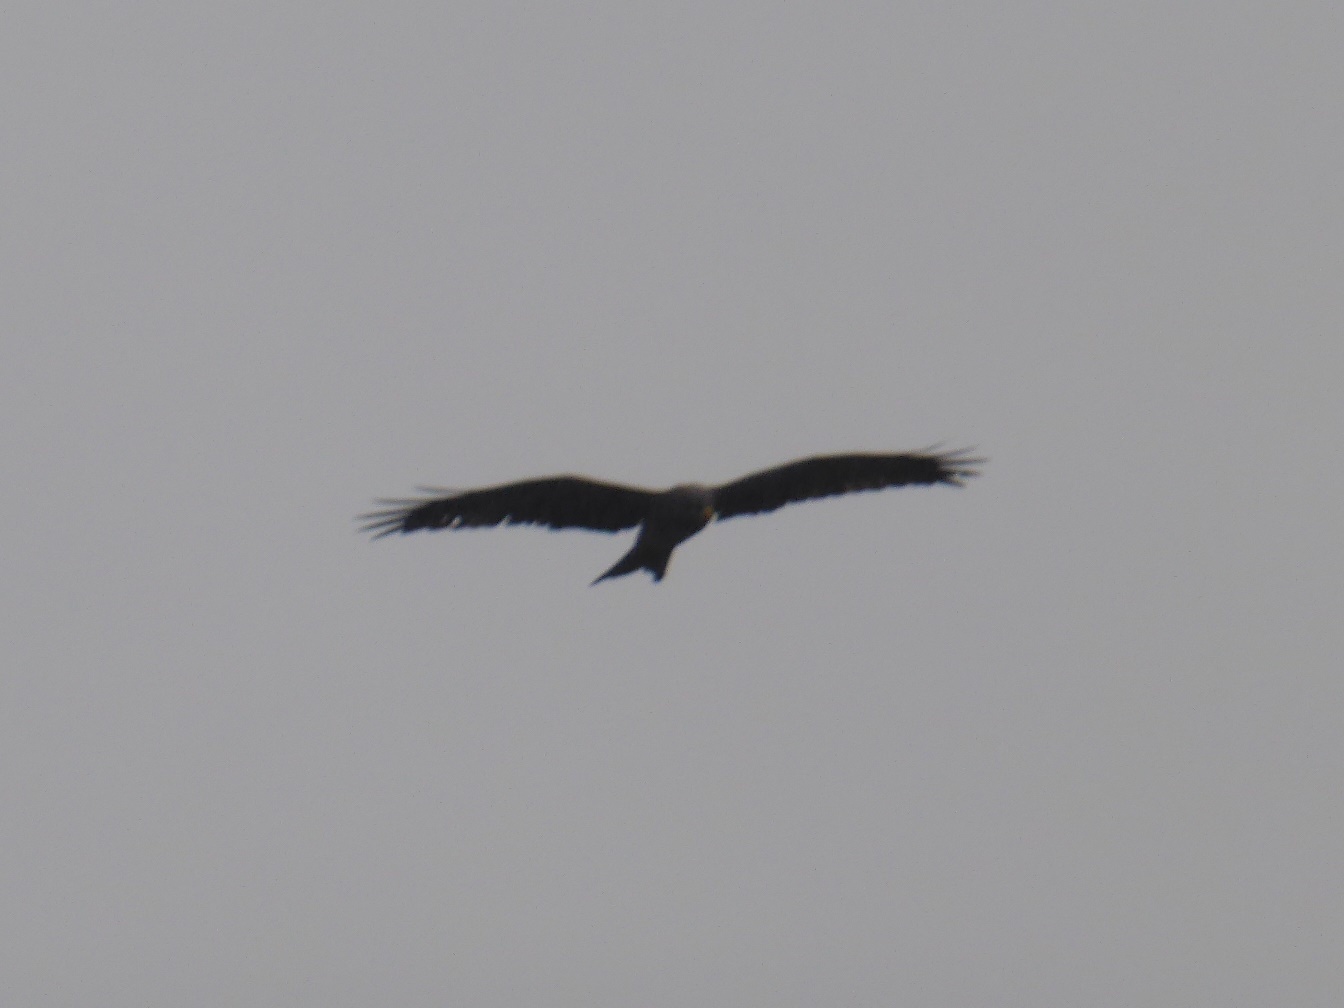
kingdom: Animalia
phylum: Chordata
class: Aves
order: Accipitriformes
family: Accipitridae
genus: Milvus
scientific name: Milvus migrans
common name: Black kite
